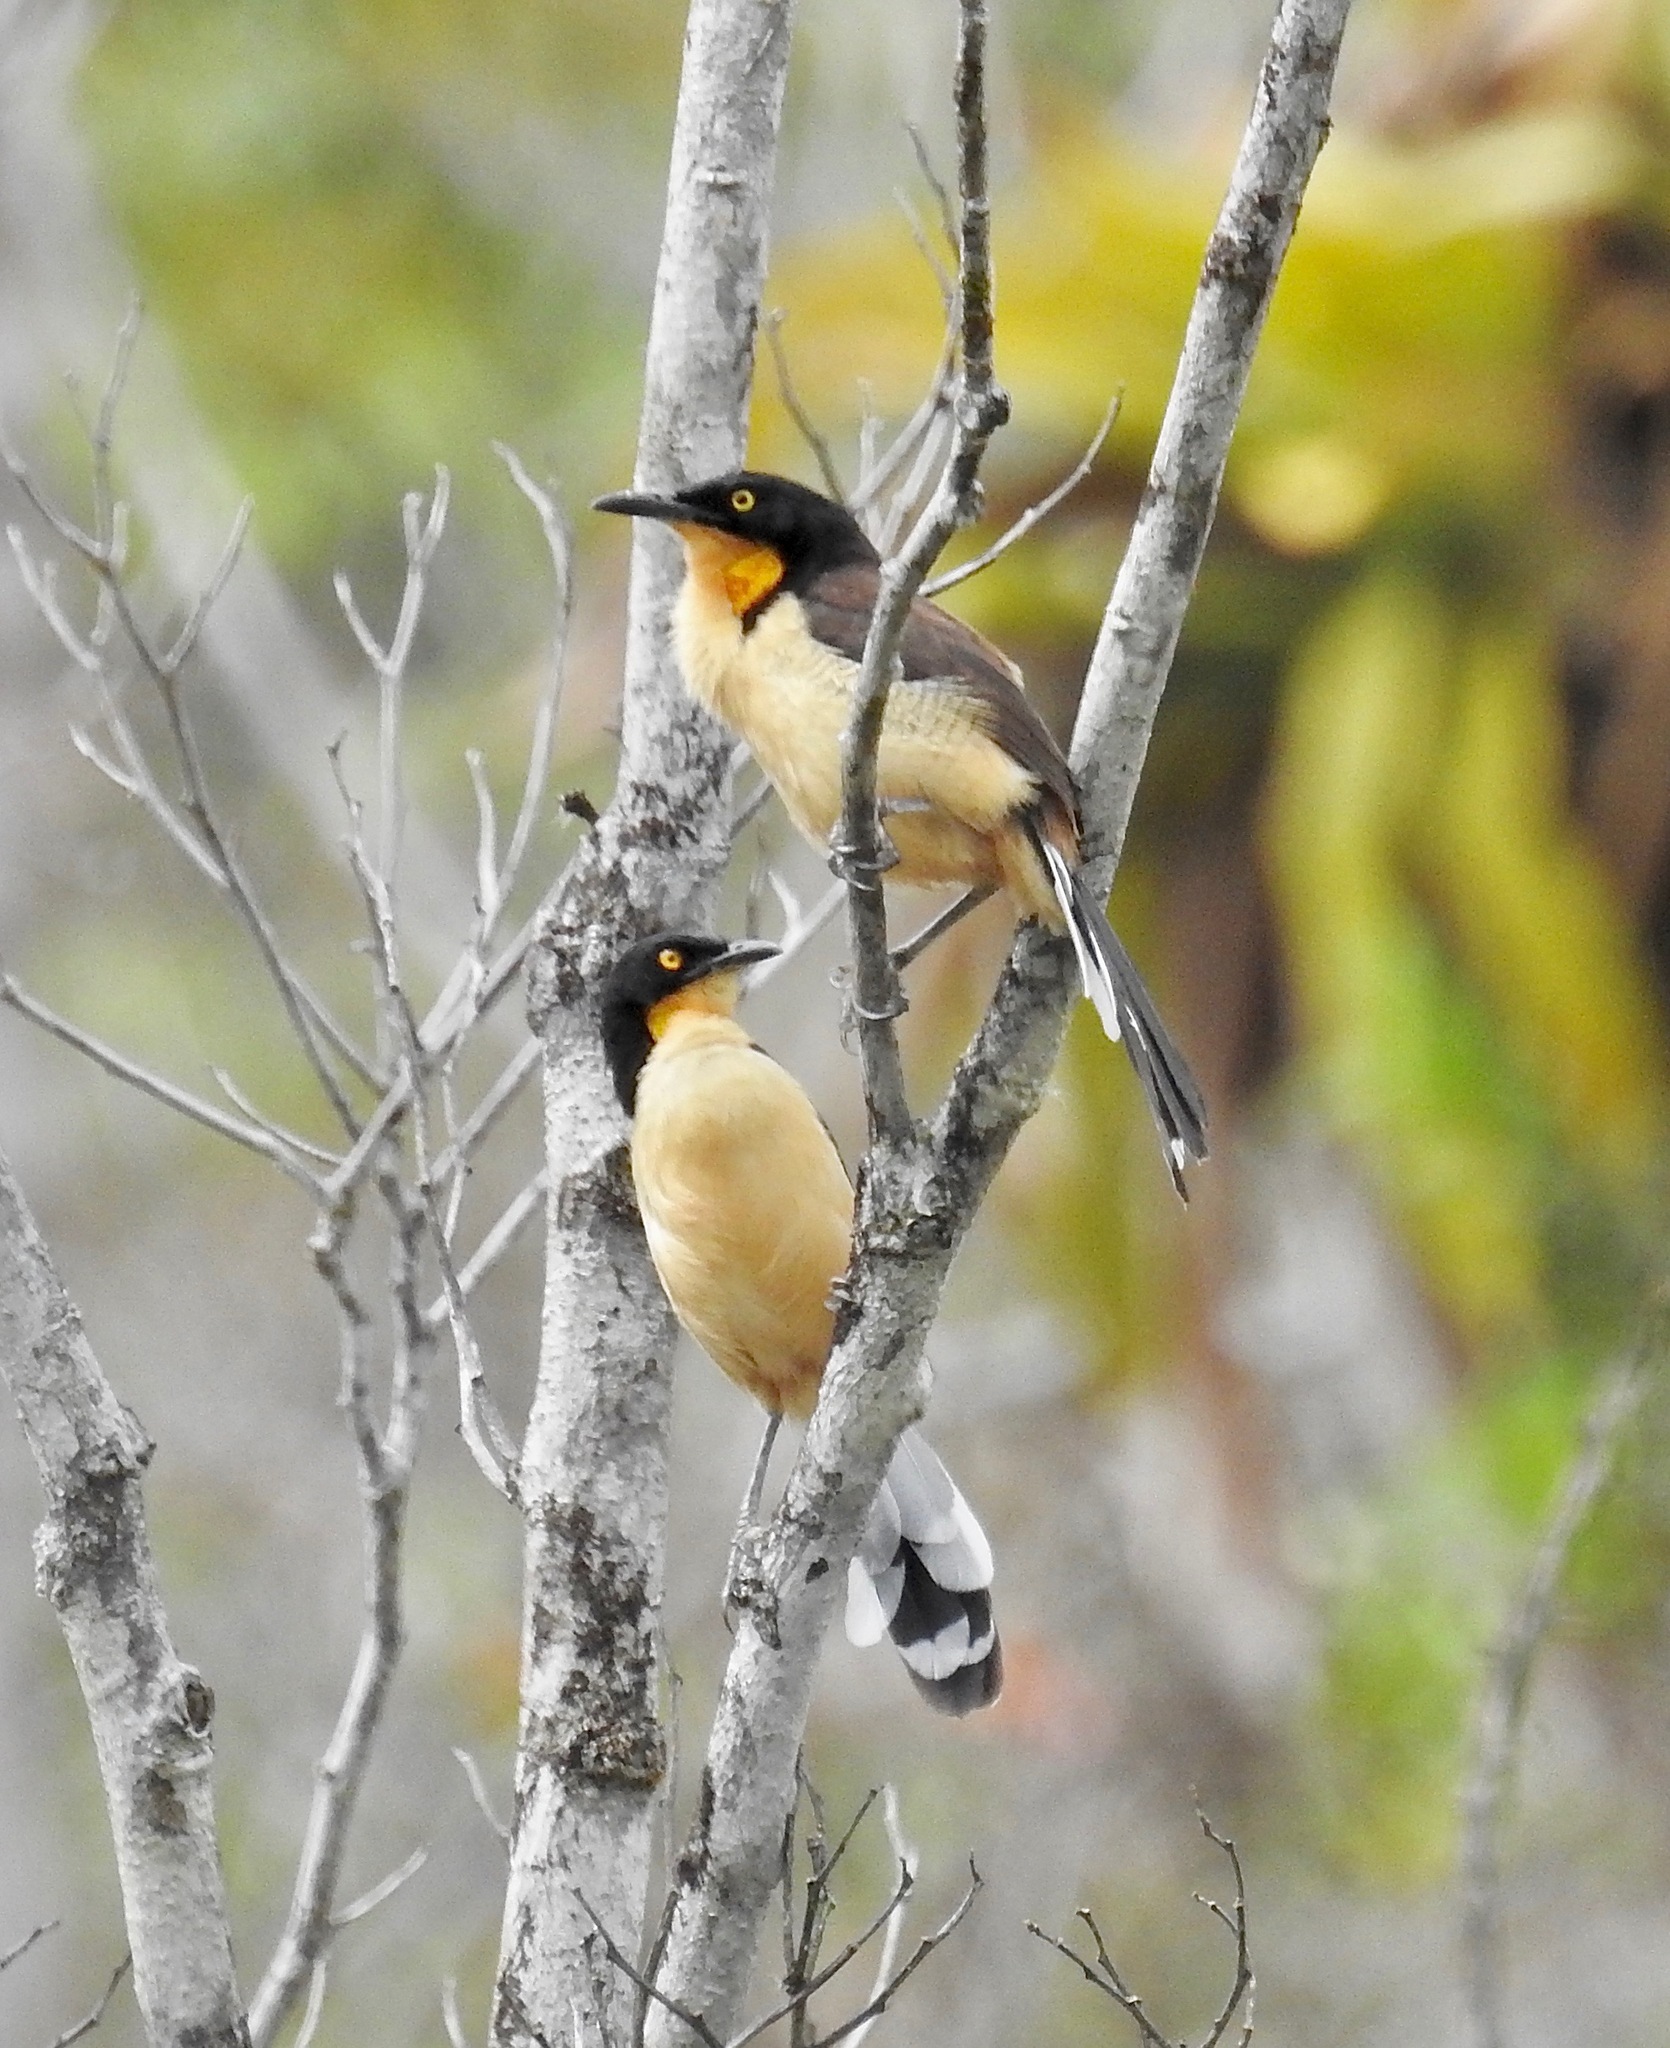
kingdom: Animalia
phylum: Chordata
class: Aves
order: Passeriformes
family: Donacobiidae
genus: Donacobius
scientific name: Donacobius atricapilla
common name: Black-capped donacobius
